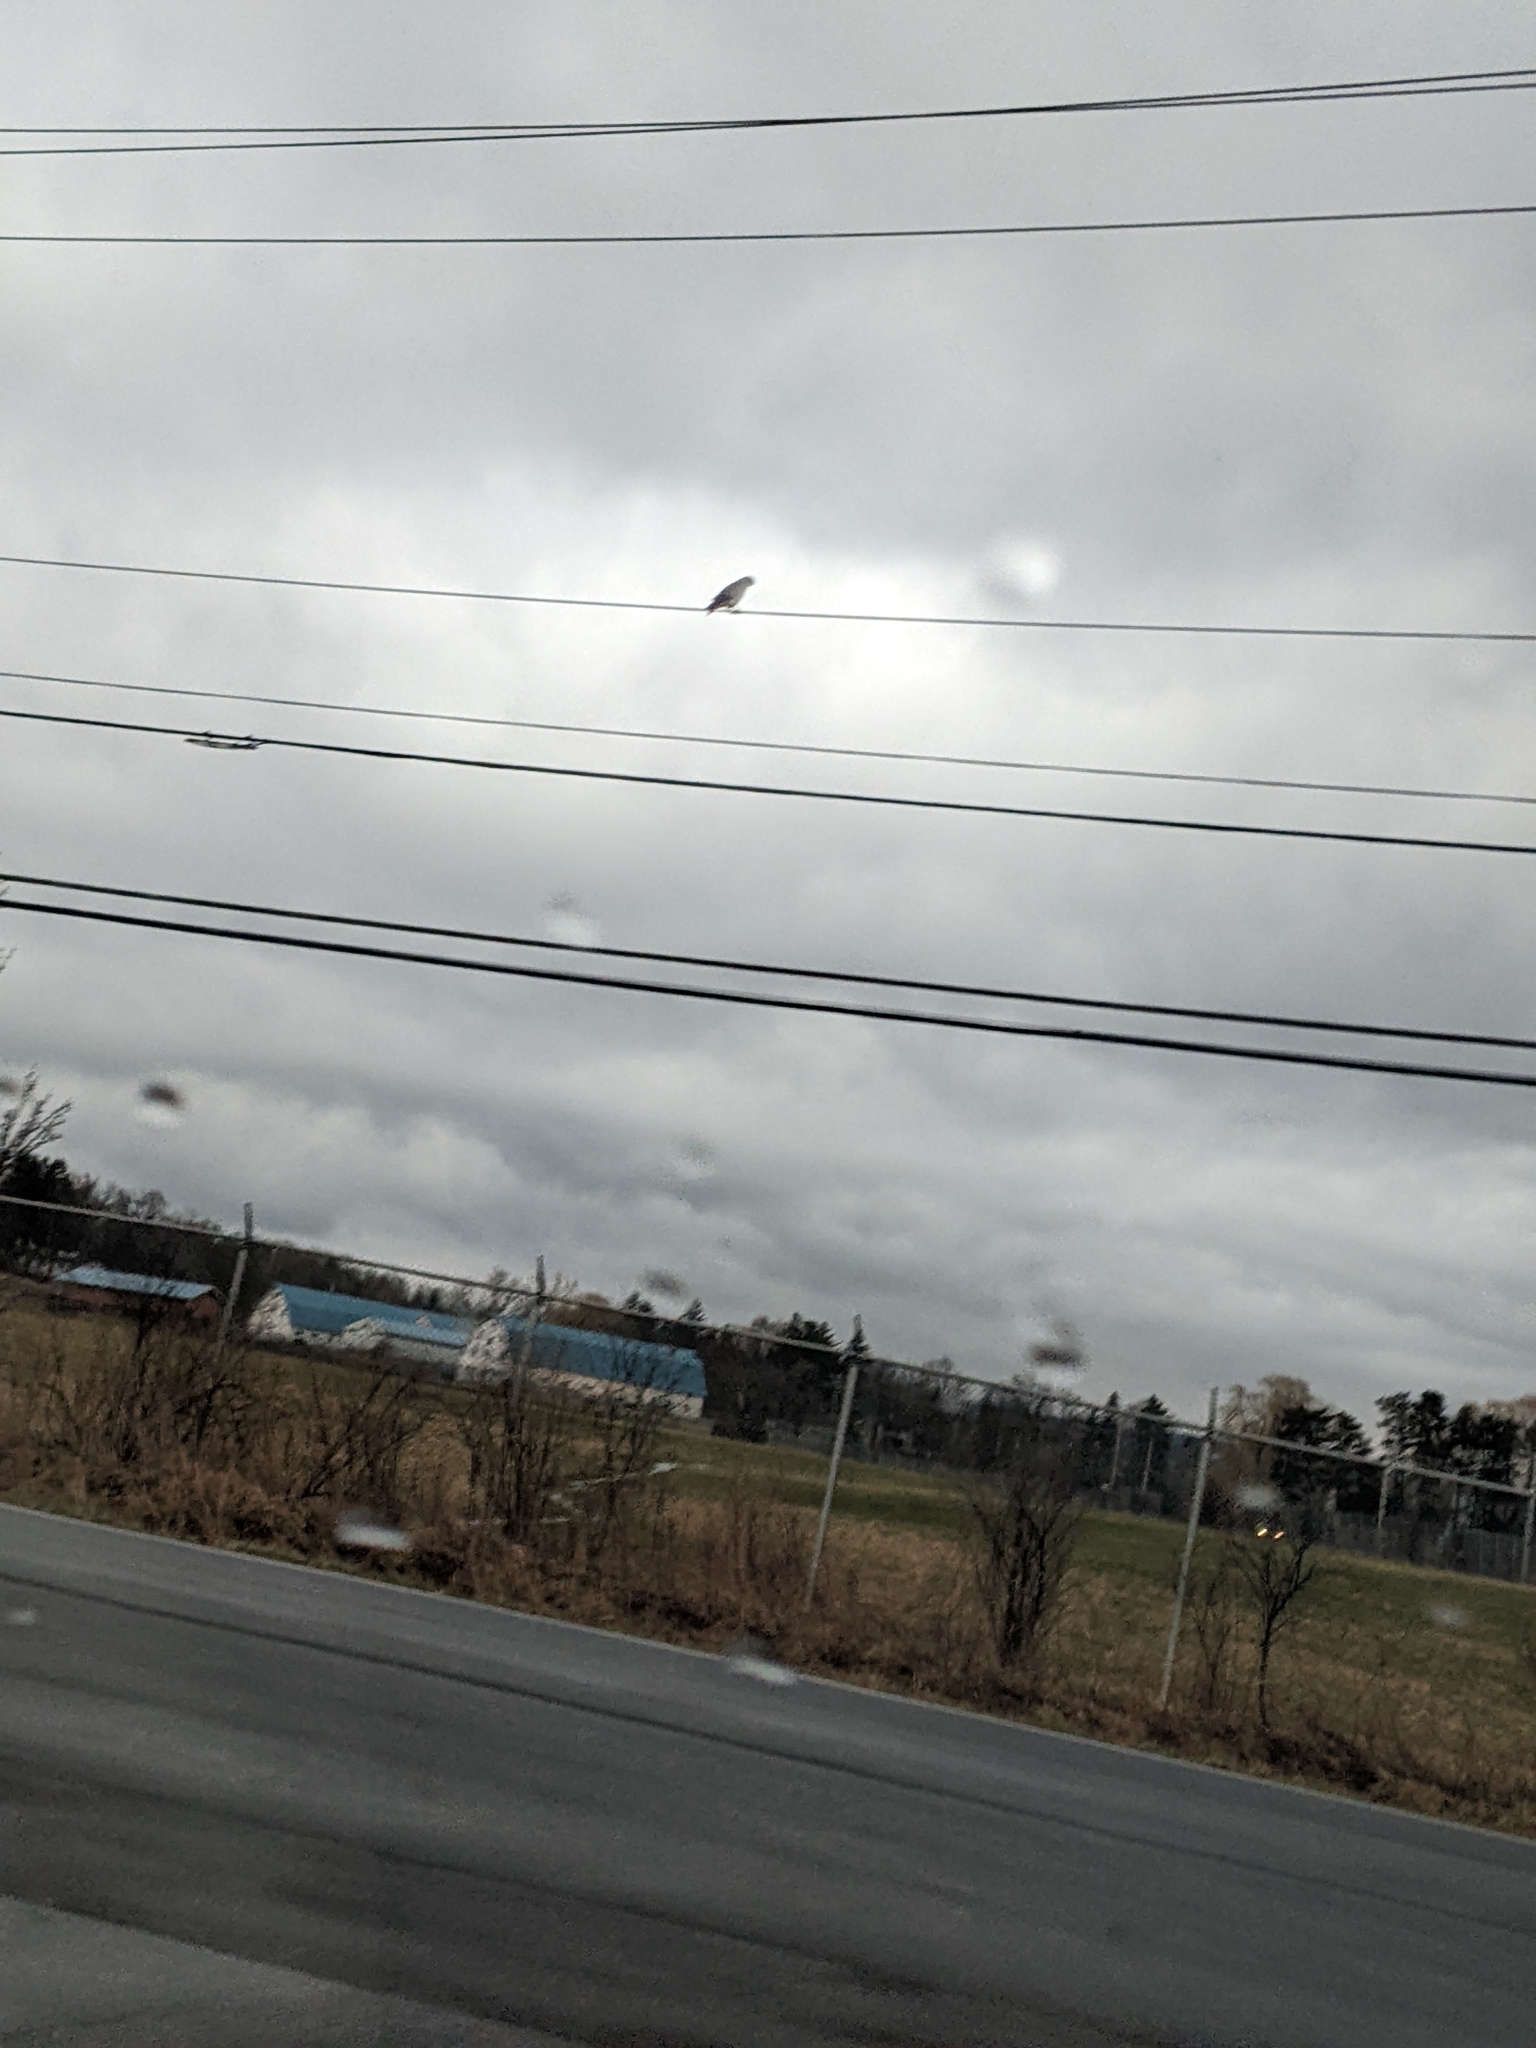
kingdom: Animalia
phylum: Chordata
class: Aves
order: Accipitriformes
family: Accipitridae
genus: Buteo
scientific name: Buteo jamaicensis
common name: Red-tailed hawk
